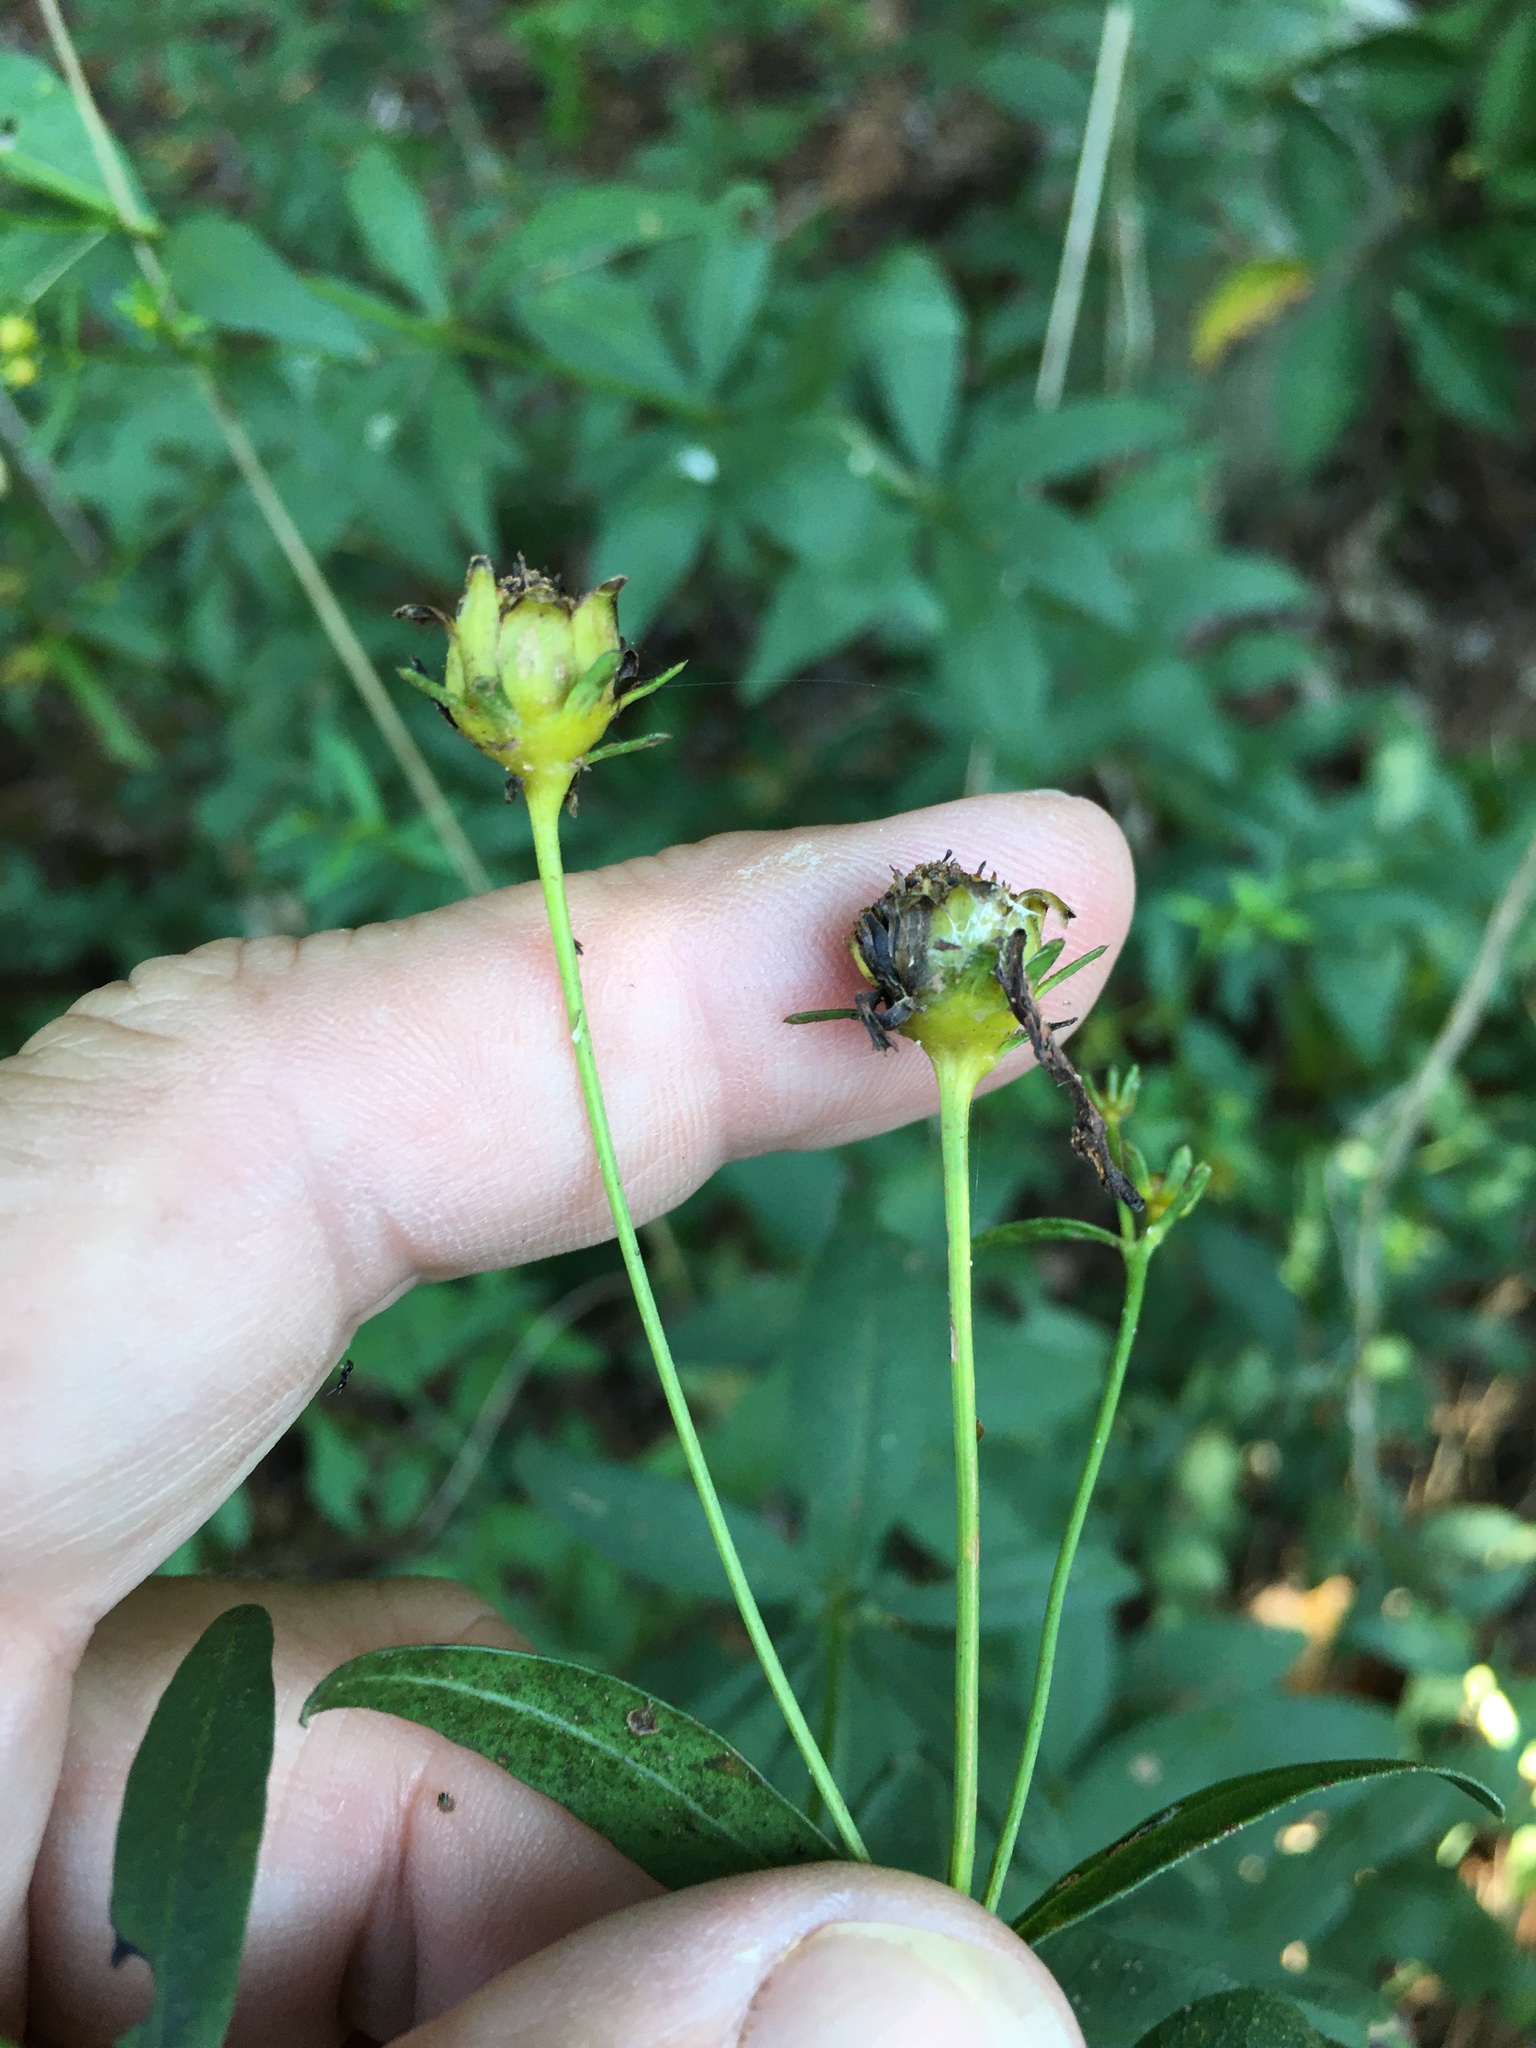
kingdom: Plantae
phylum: Tracheophyta
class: Magnoliopsida
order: Asterales
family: Asteraceae
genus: Coreopsis
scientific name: Coreopsis major
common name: Forest tickseed
